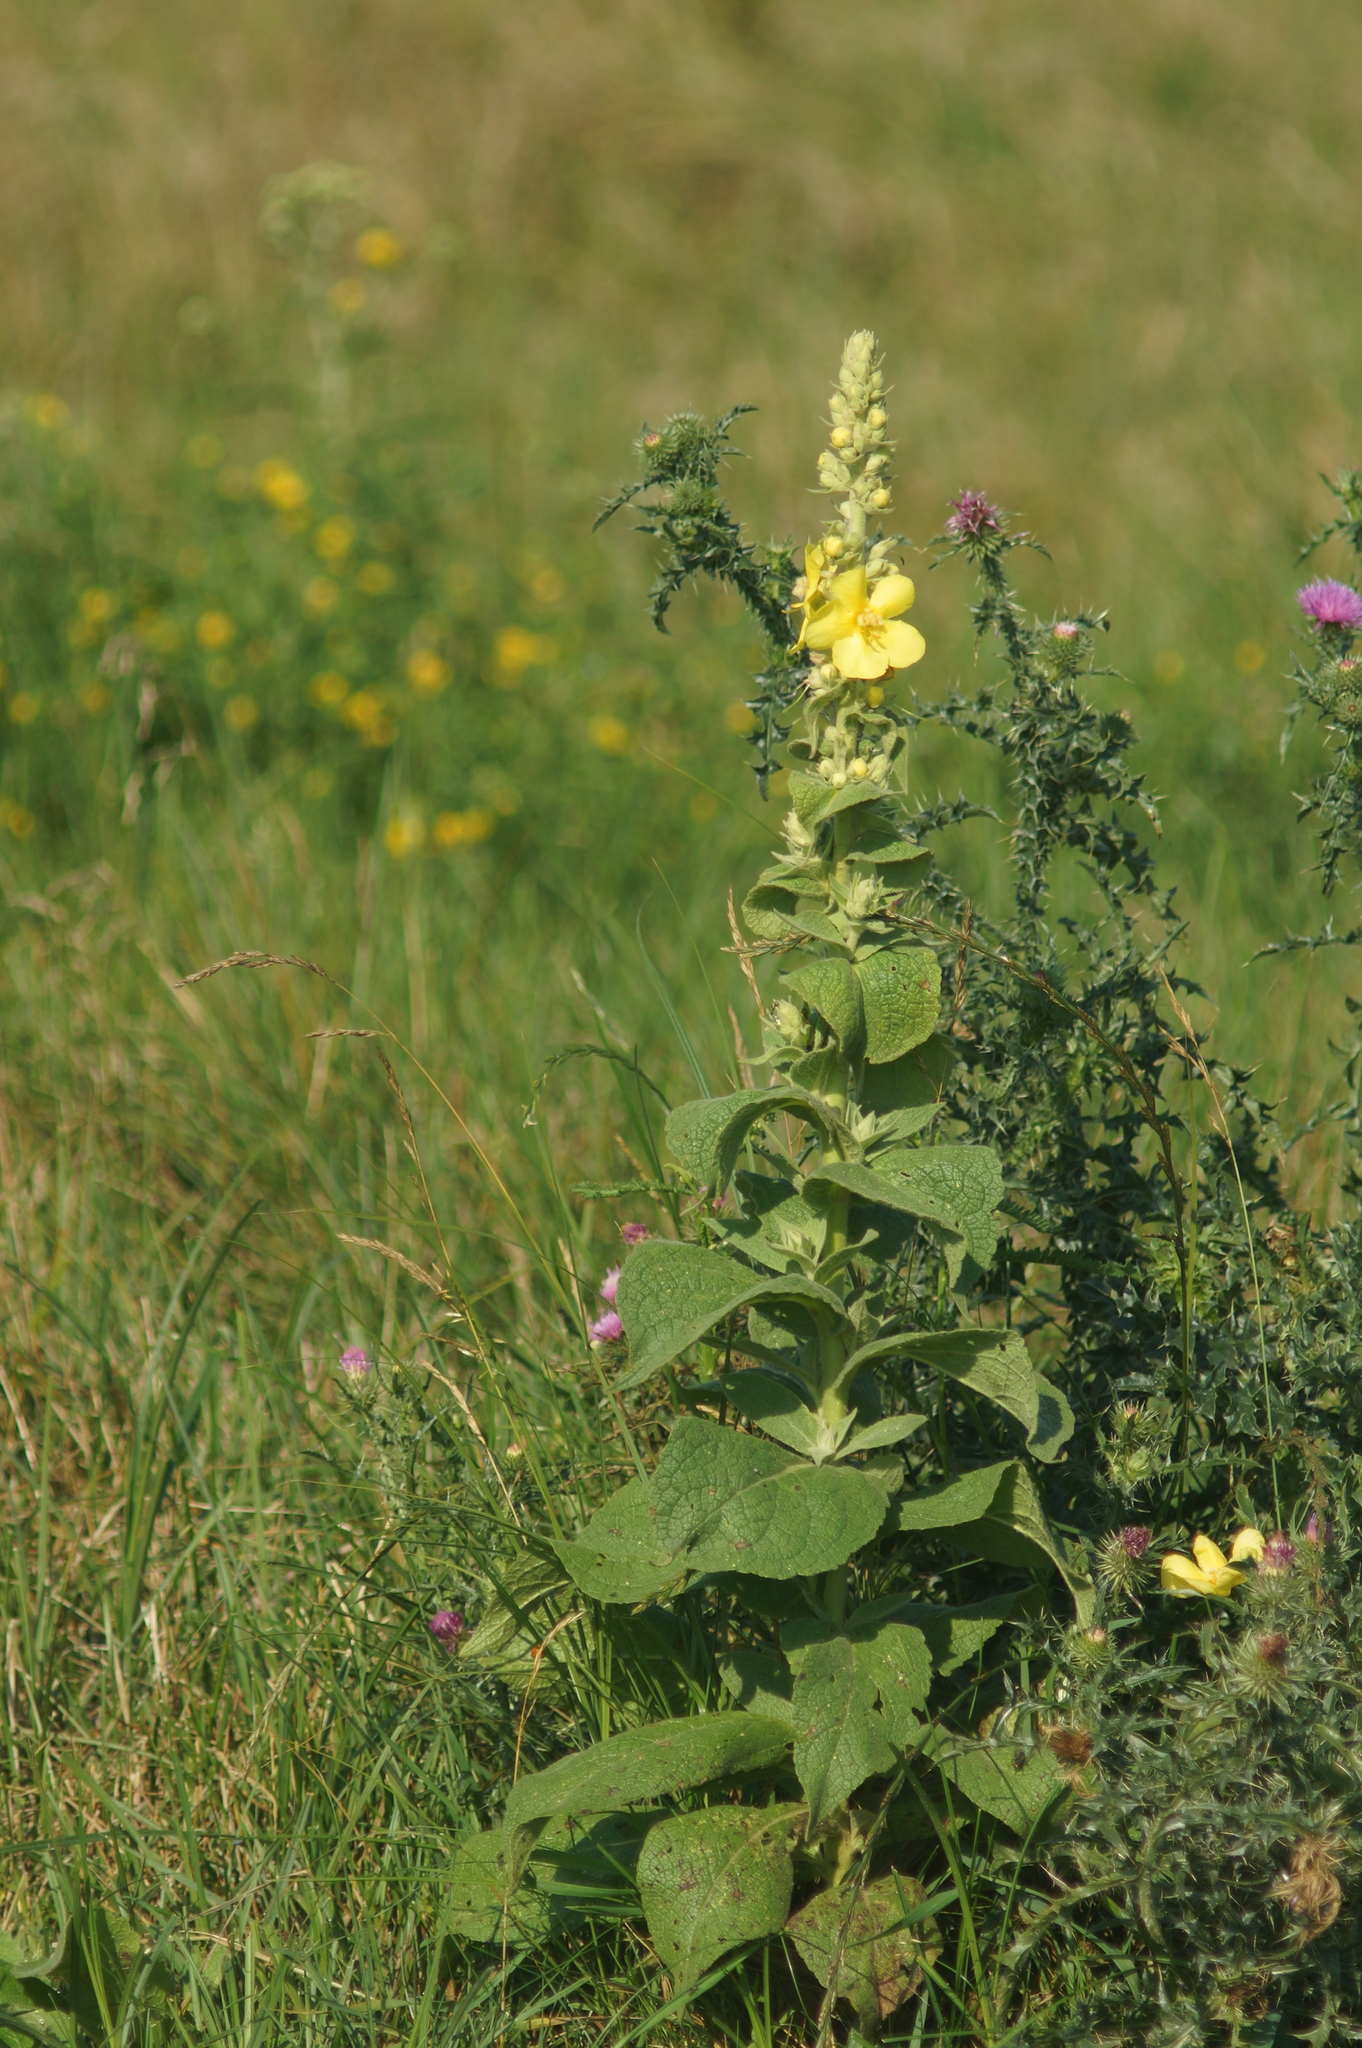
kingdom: Plantae
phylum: Tracheophyta
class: Magnoliopsida
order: Lamiales
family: Scrophulariaceae
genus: Verbascum
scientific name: Verbascum phlomoides
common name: Orange mullein
